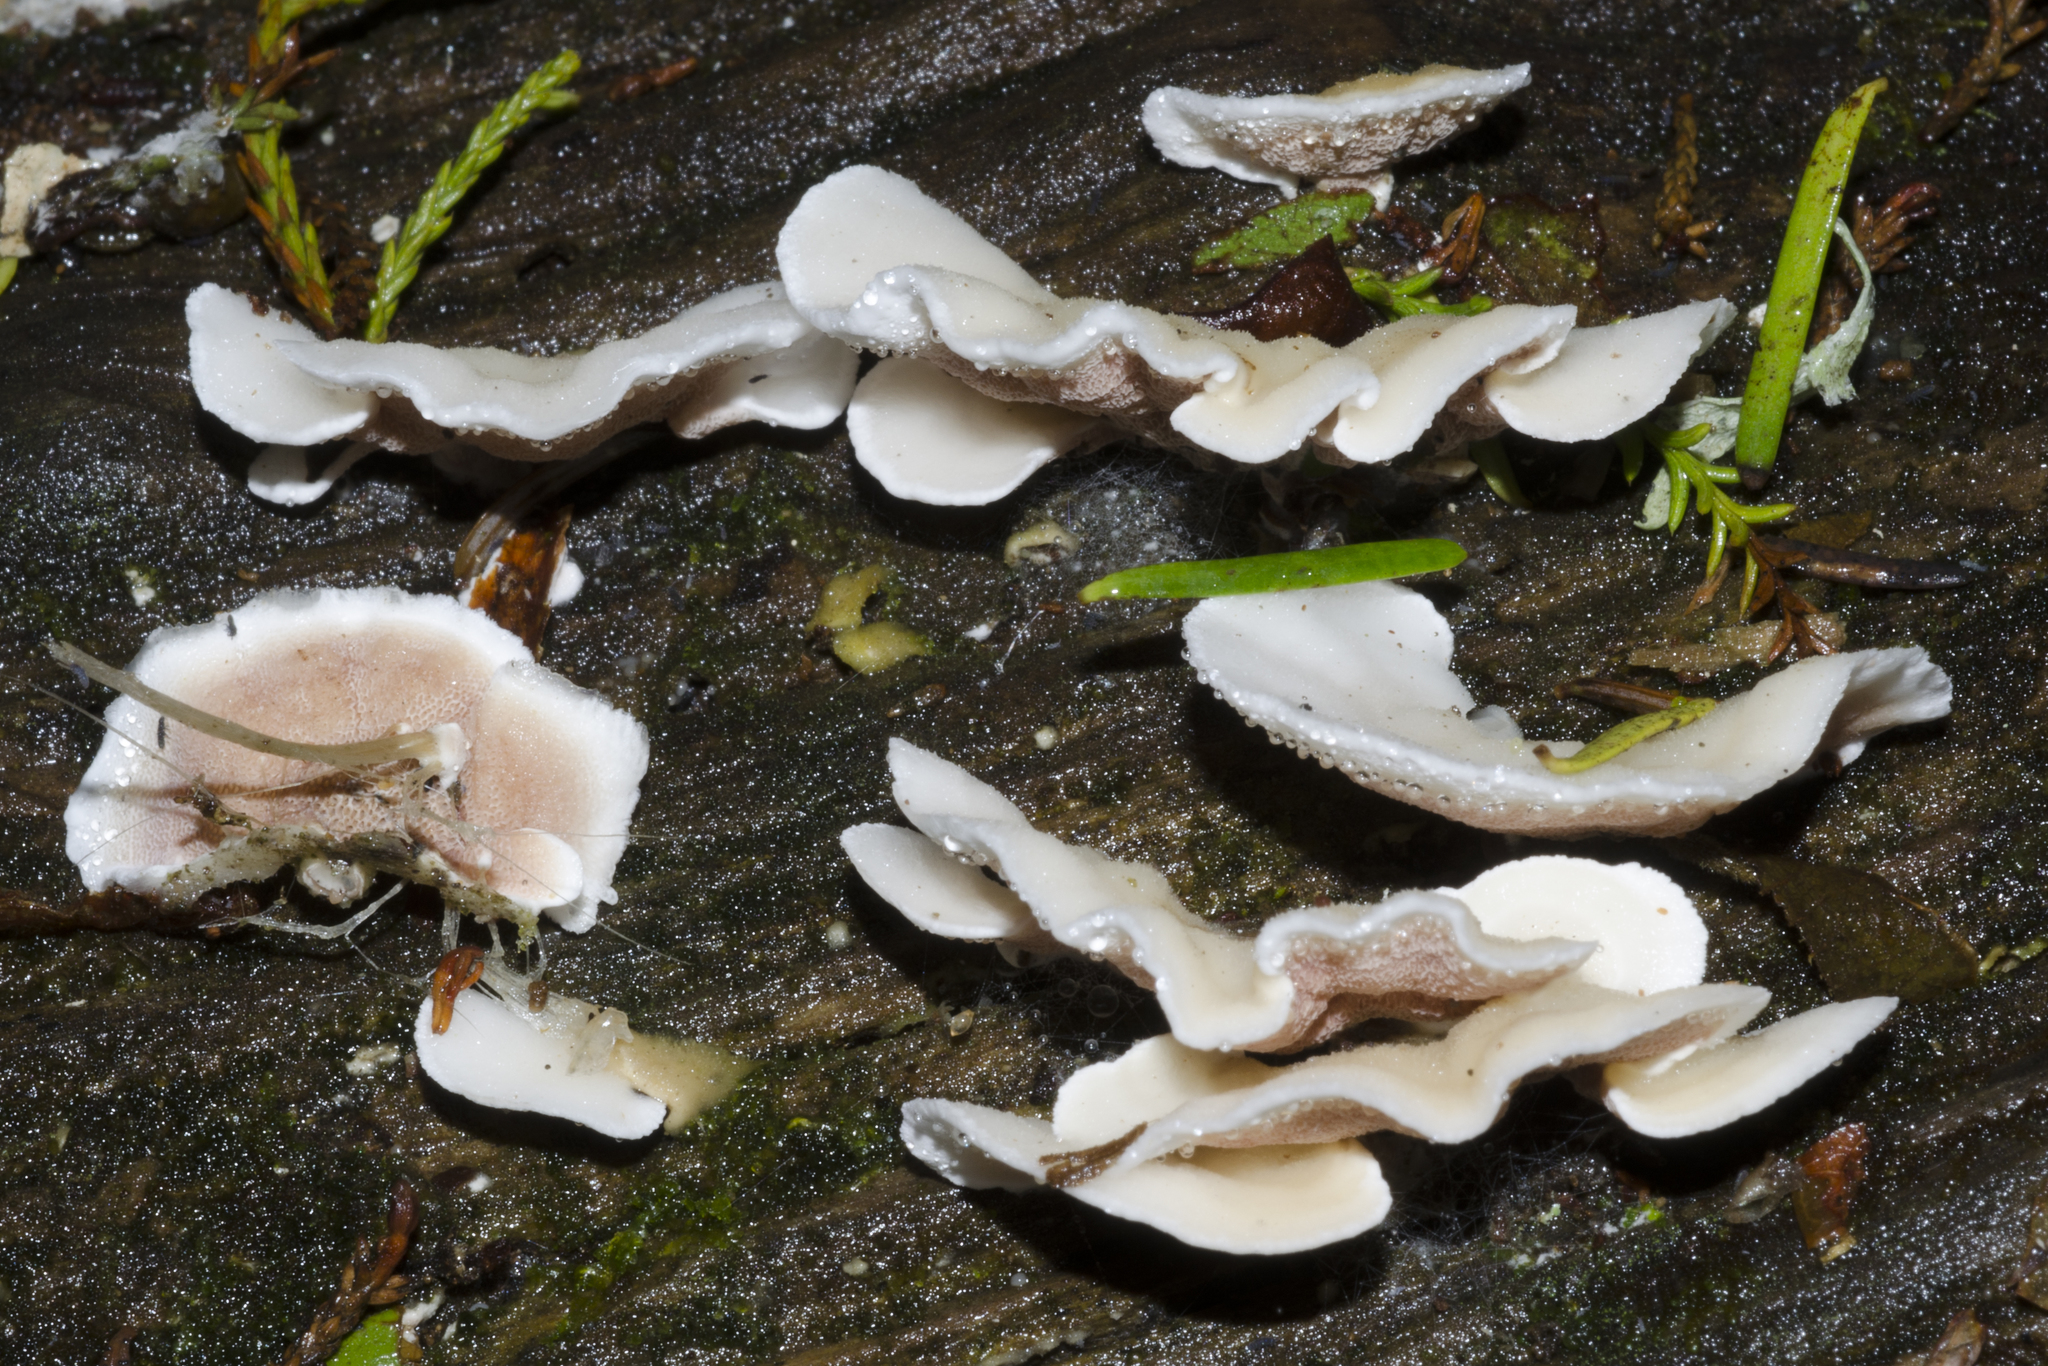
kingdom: Fungi
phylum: Basidiomycota
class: Agaricomycetes
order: Polyporales
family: Irpicaceae
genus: Vitreoporus
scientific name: Vitreoporus dichrous
